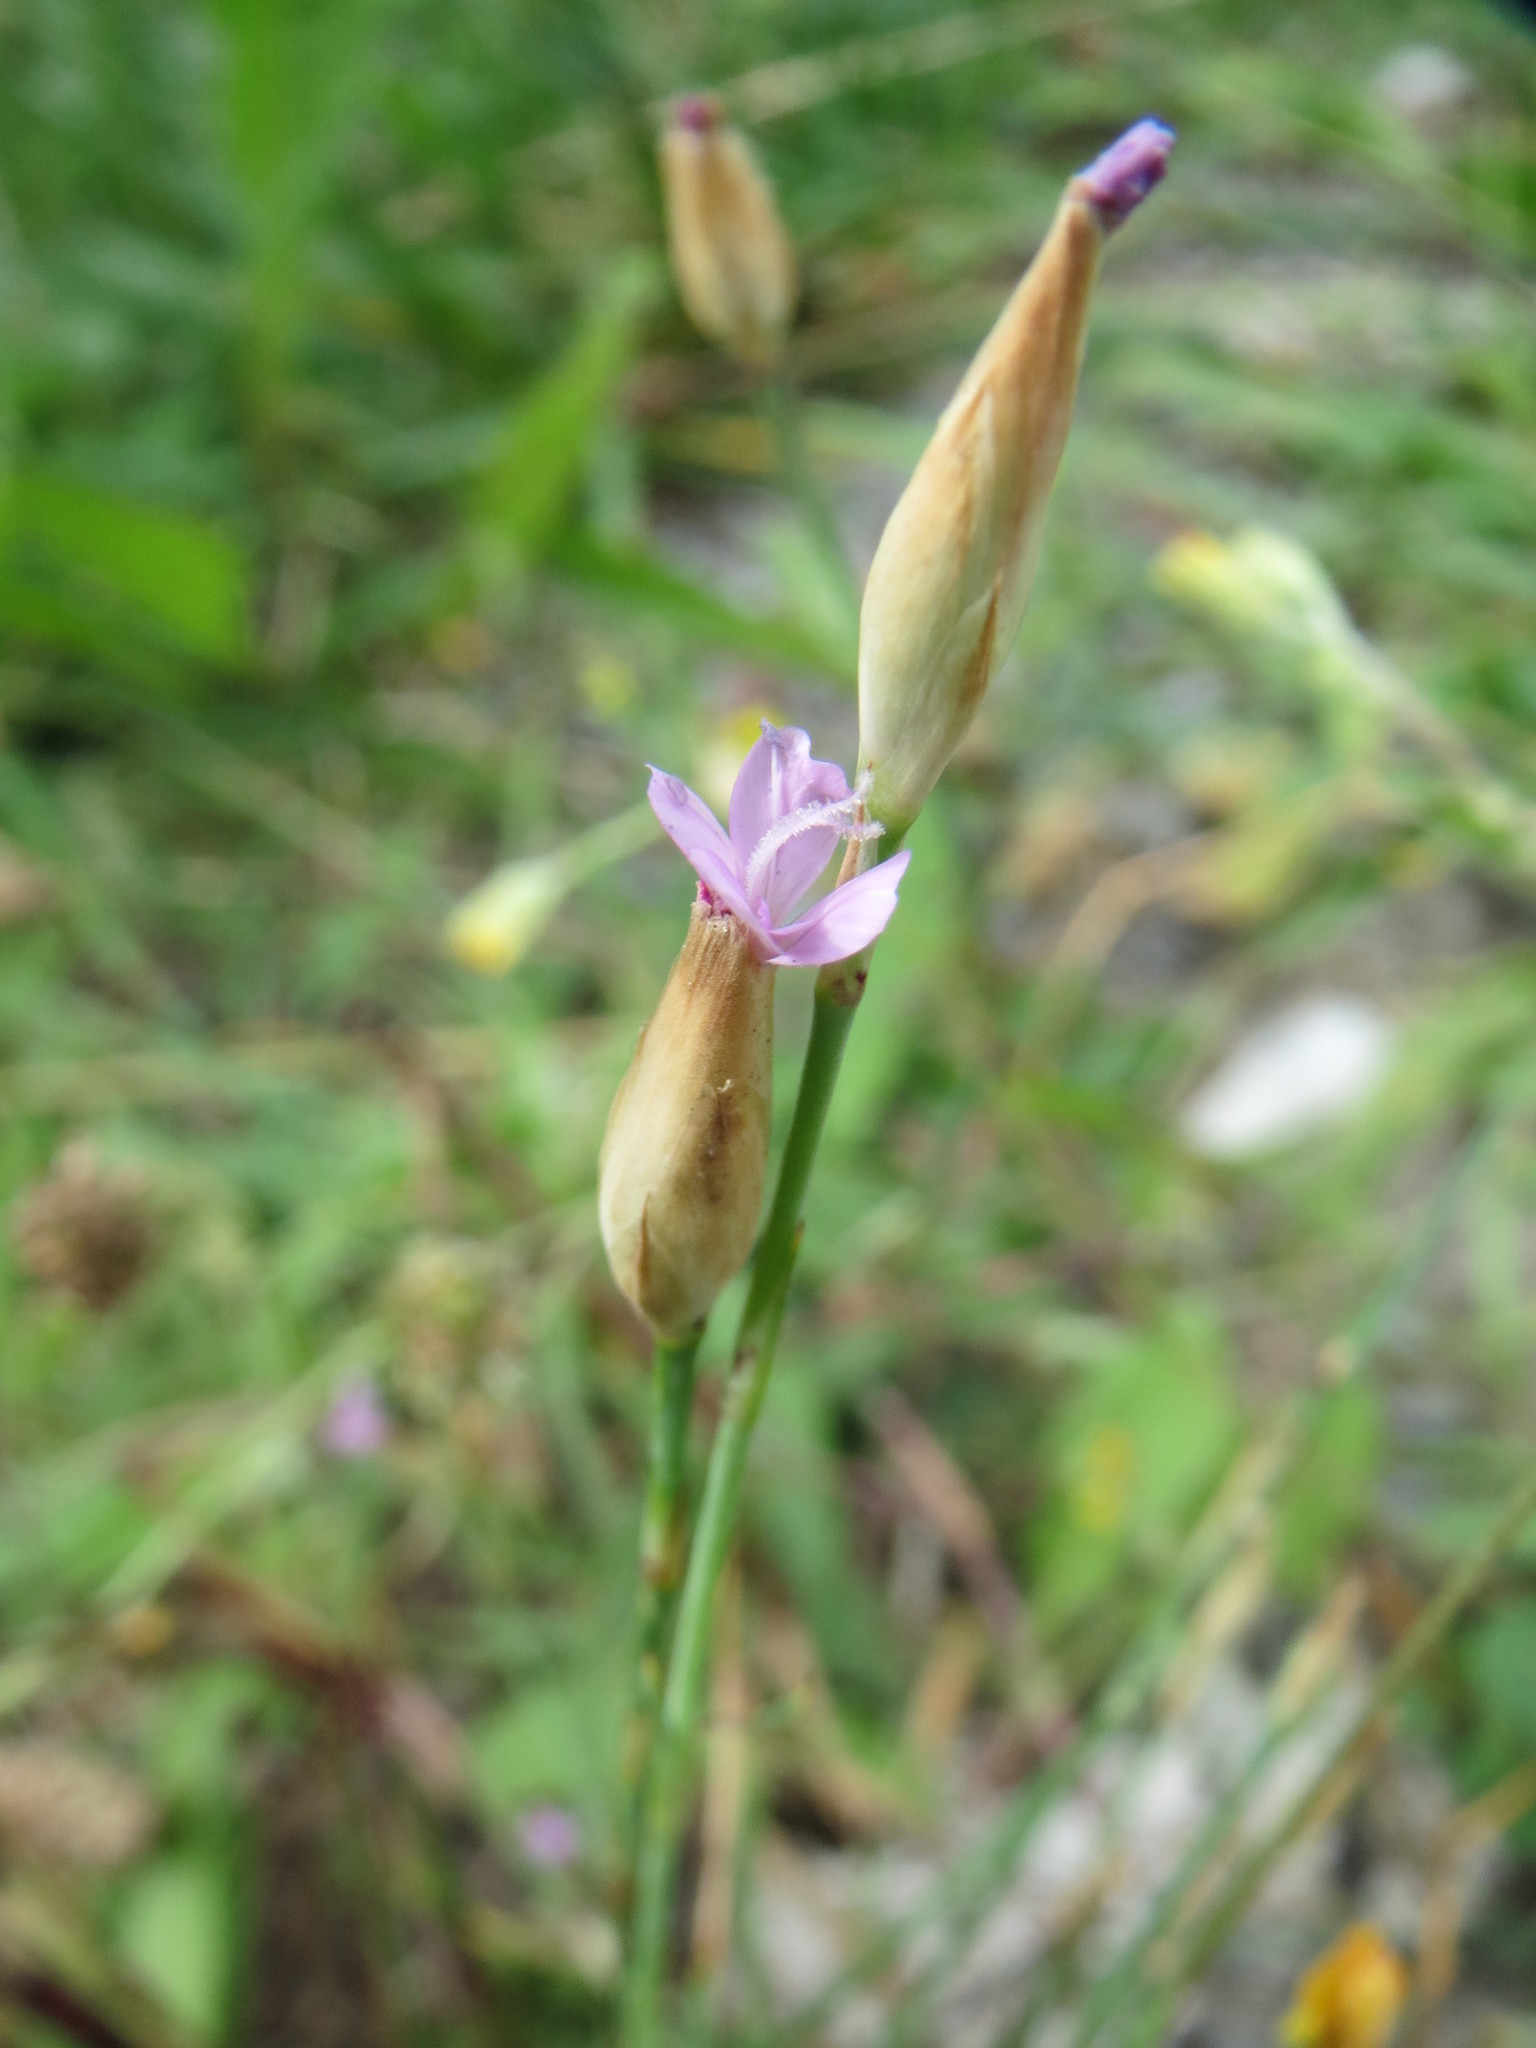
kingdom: Plantae
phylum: Tracheophyta
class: Magnoliopsida
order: Caryophyllales
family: Caryophyllaceae
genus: Petrorhagia
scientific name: Petrorhagia prolifera
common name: Proliferous pink
